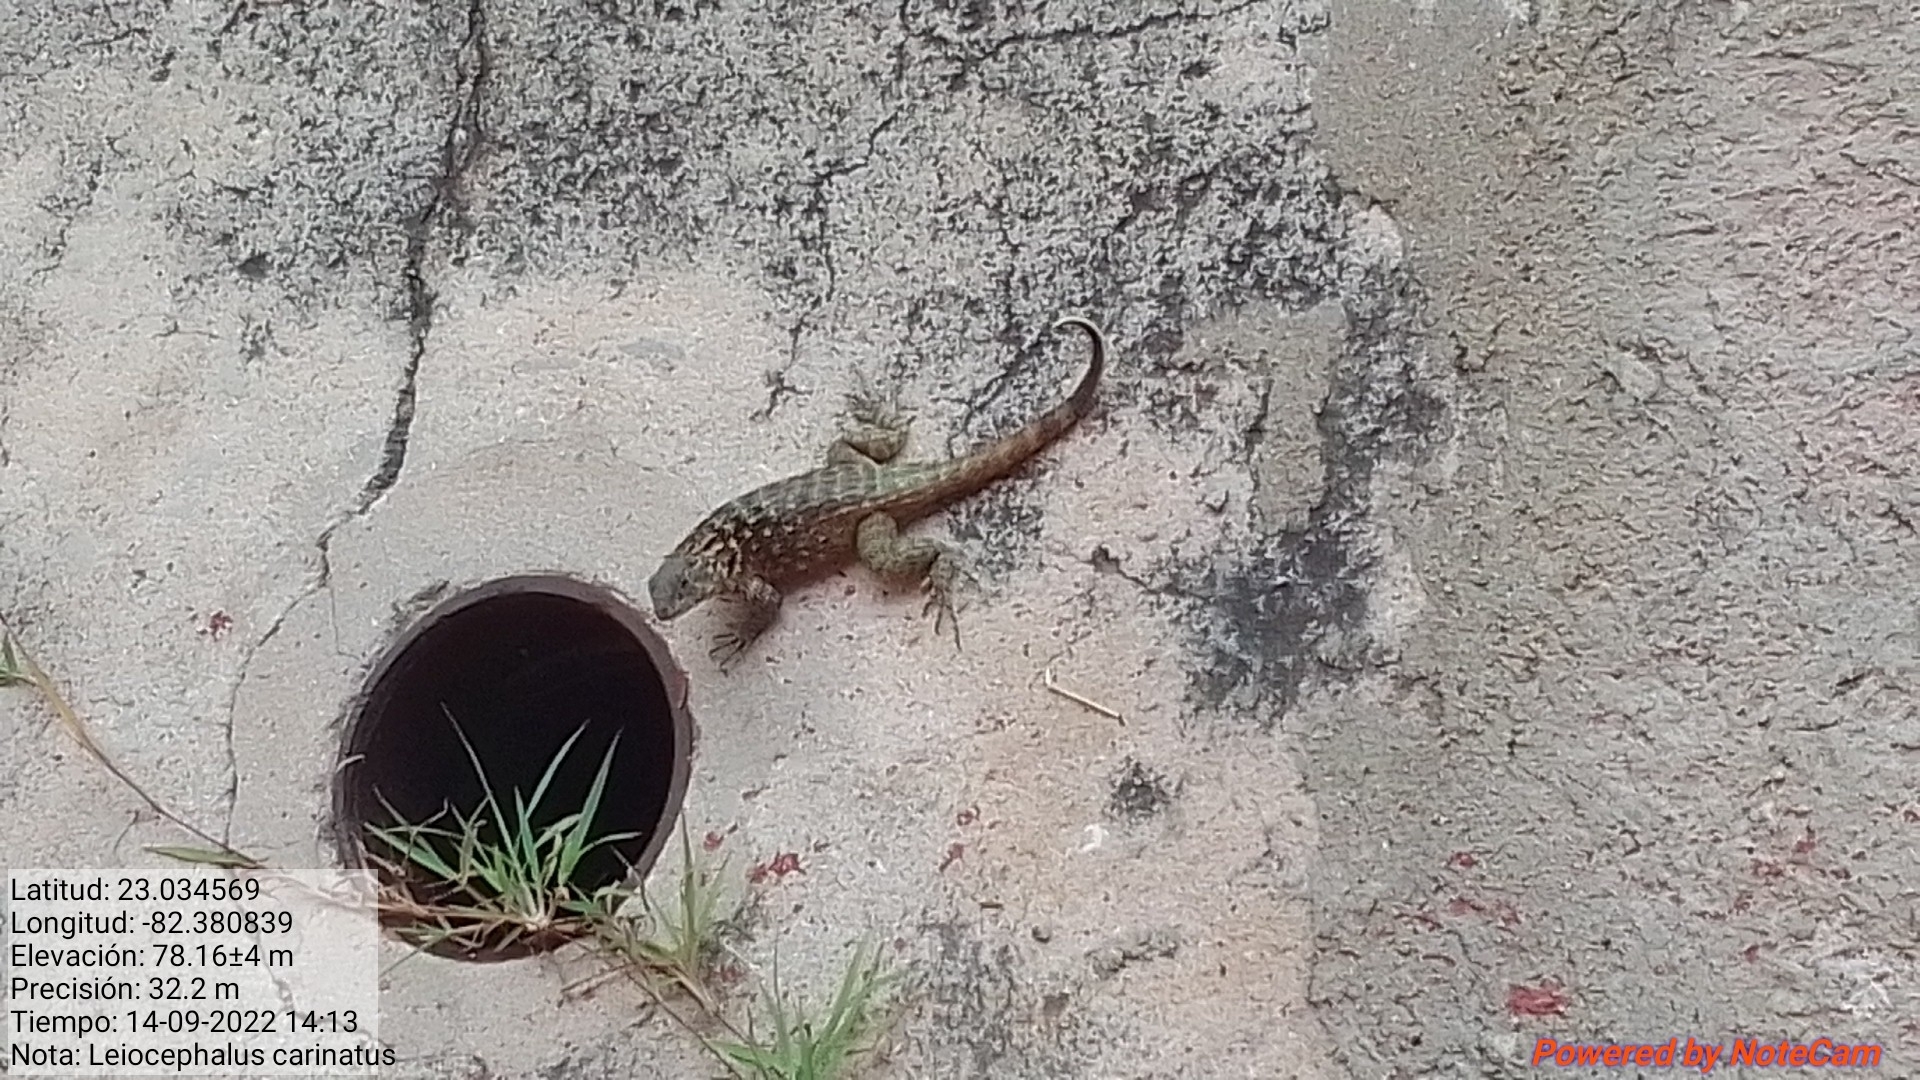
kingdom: Animalia
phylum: Chordata
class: Squamata
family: Leiocephalidae
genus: Leiocephalus
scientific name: Leiocephalus carinatus
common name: Northern curly-tailed lizard
